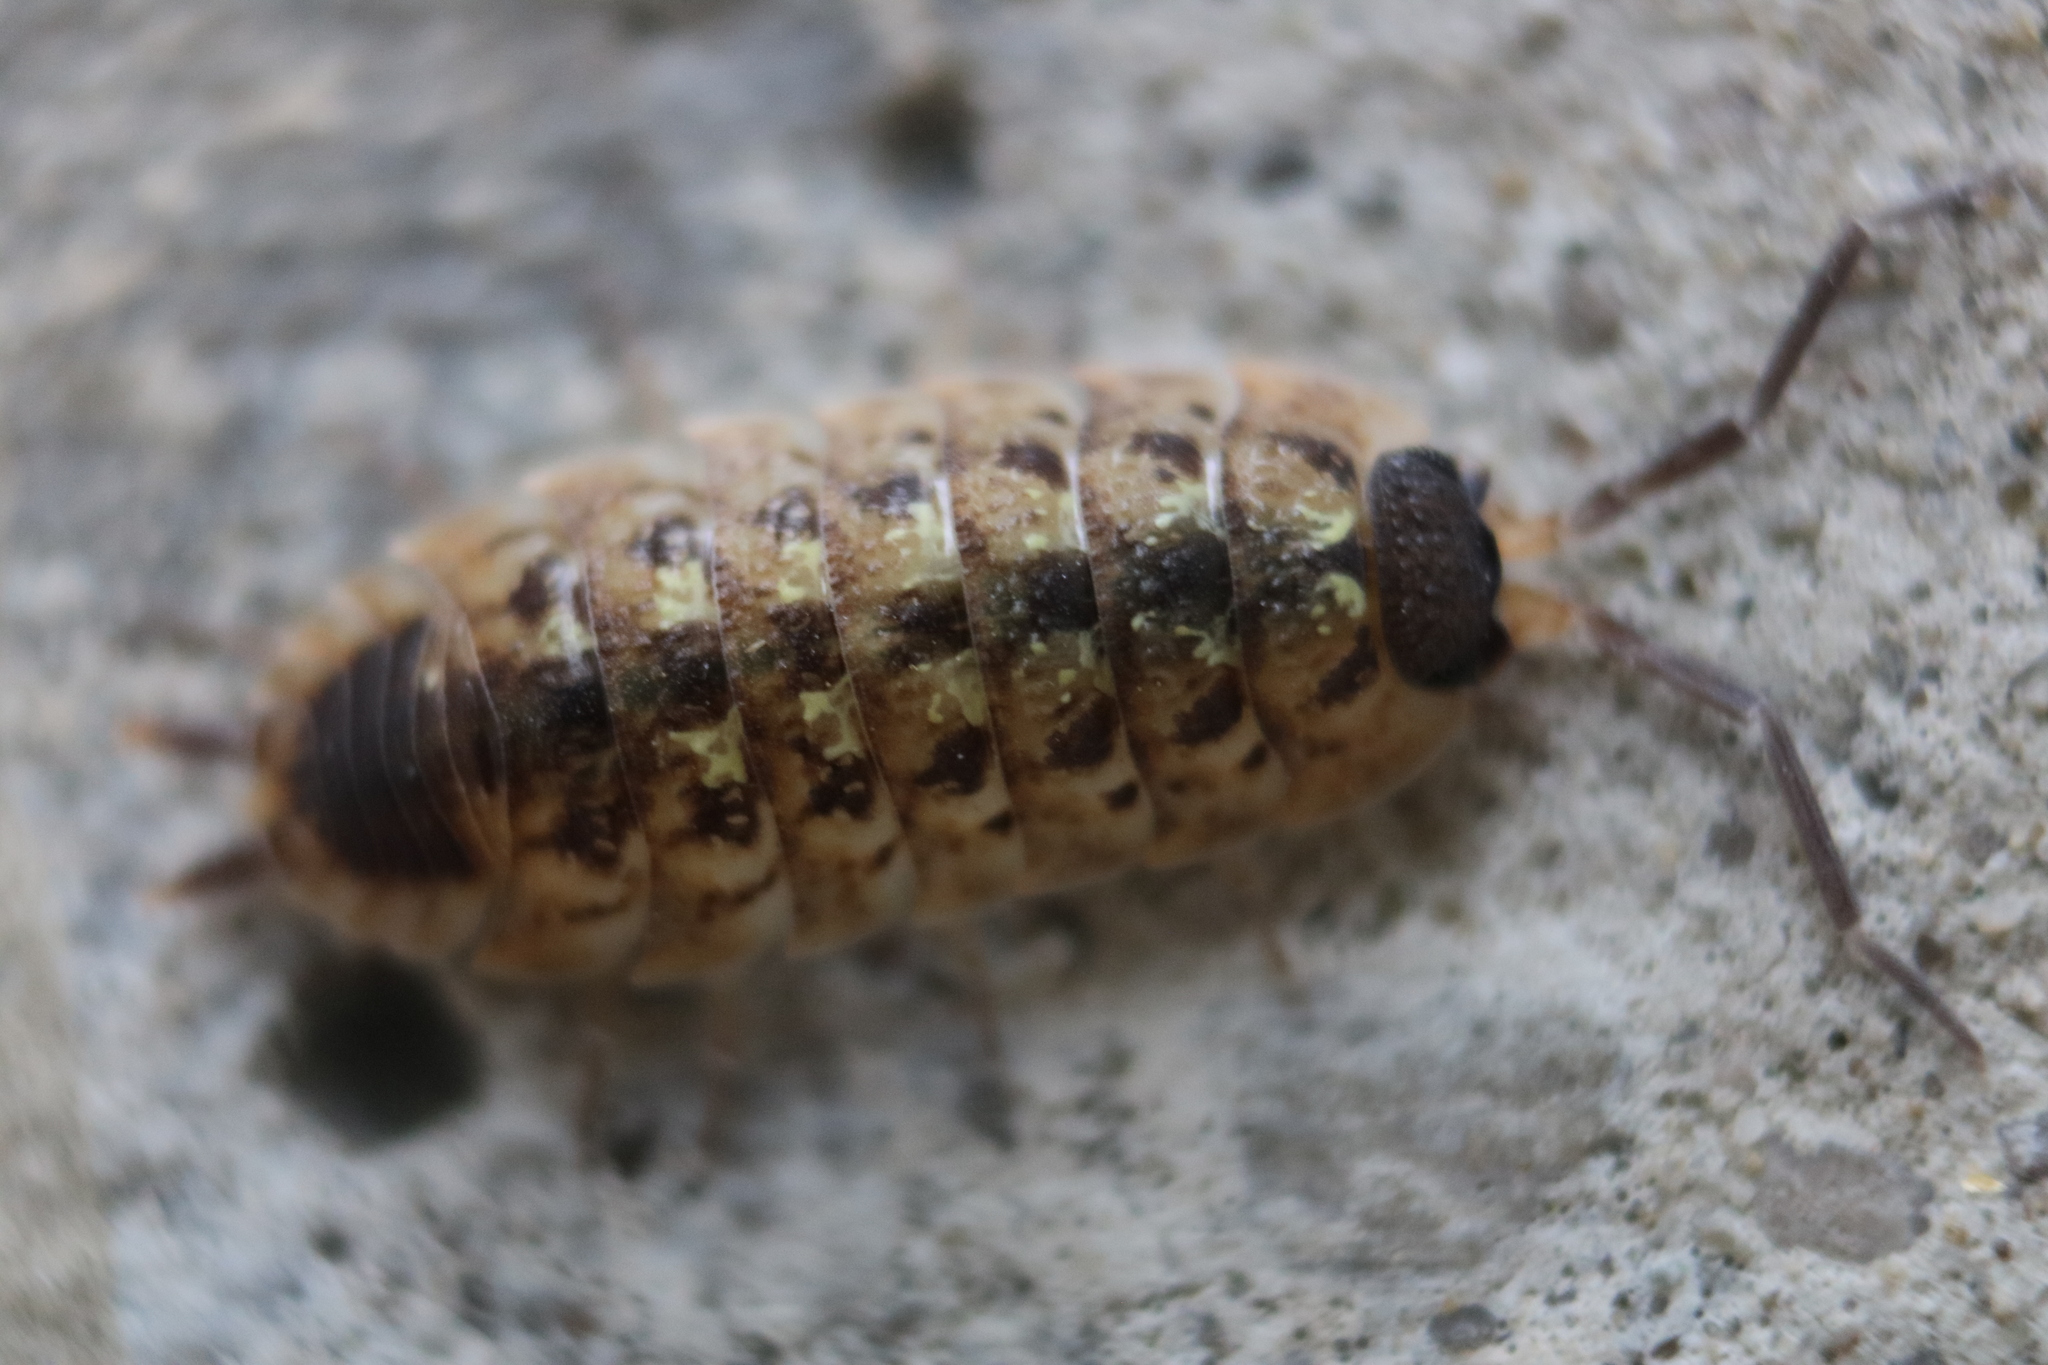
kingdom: Animalia
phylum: Arthropoda
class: Malacostraca
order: Isopoda
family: Porcellionidae
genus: Porcellio
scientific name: Porcellio spinicornis
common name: Painted woodlouse
